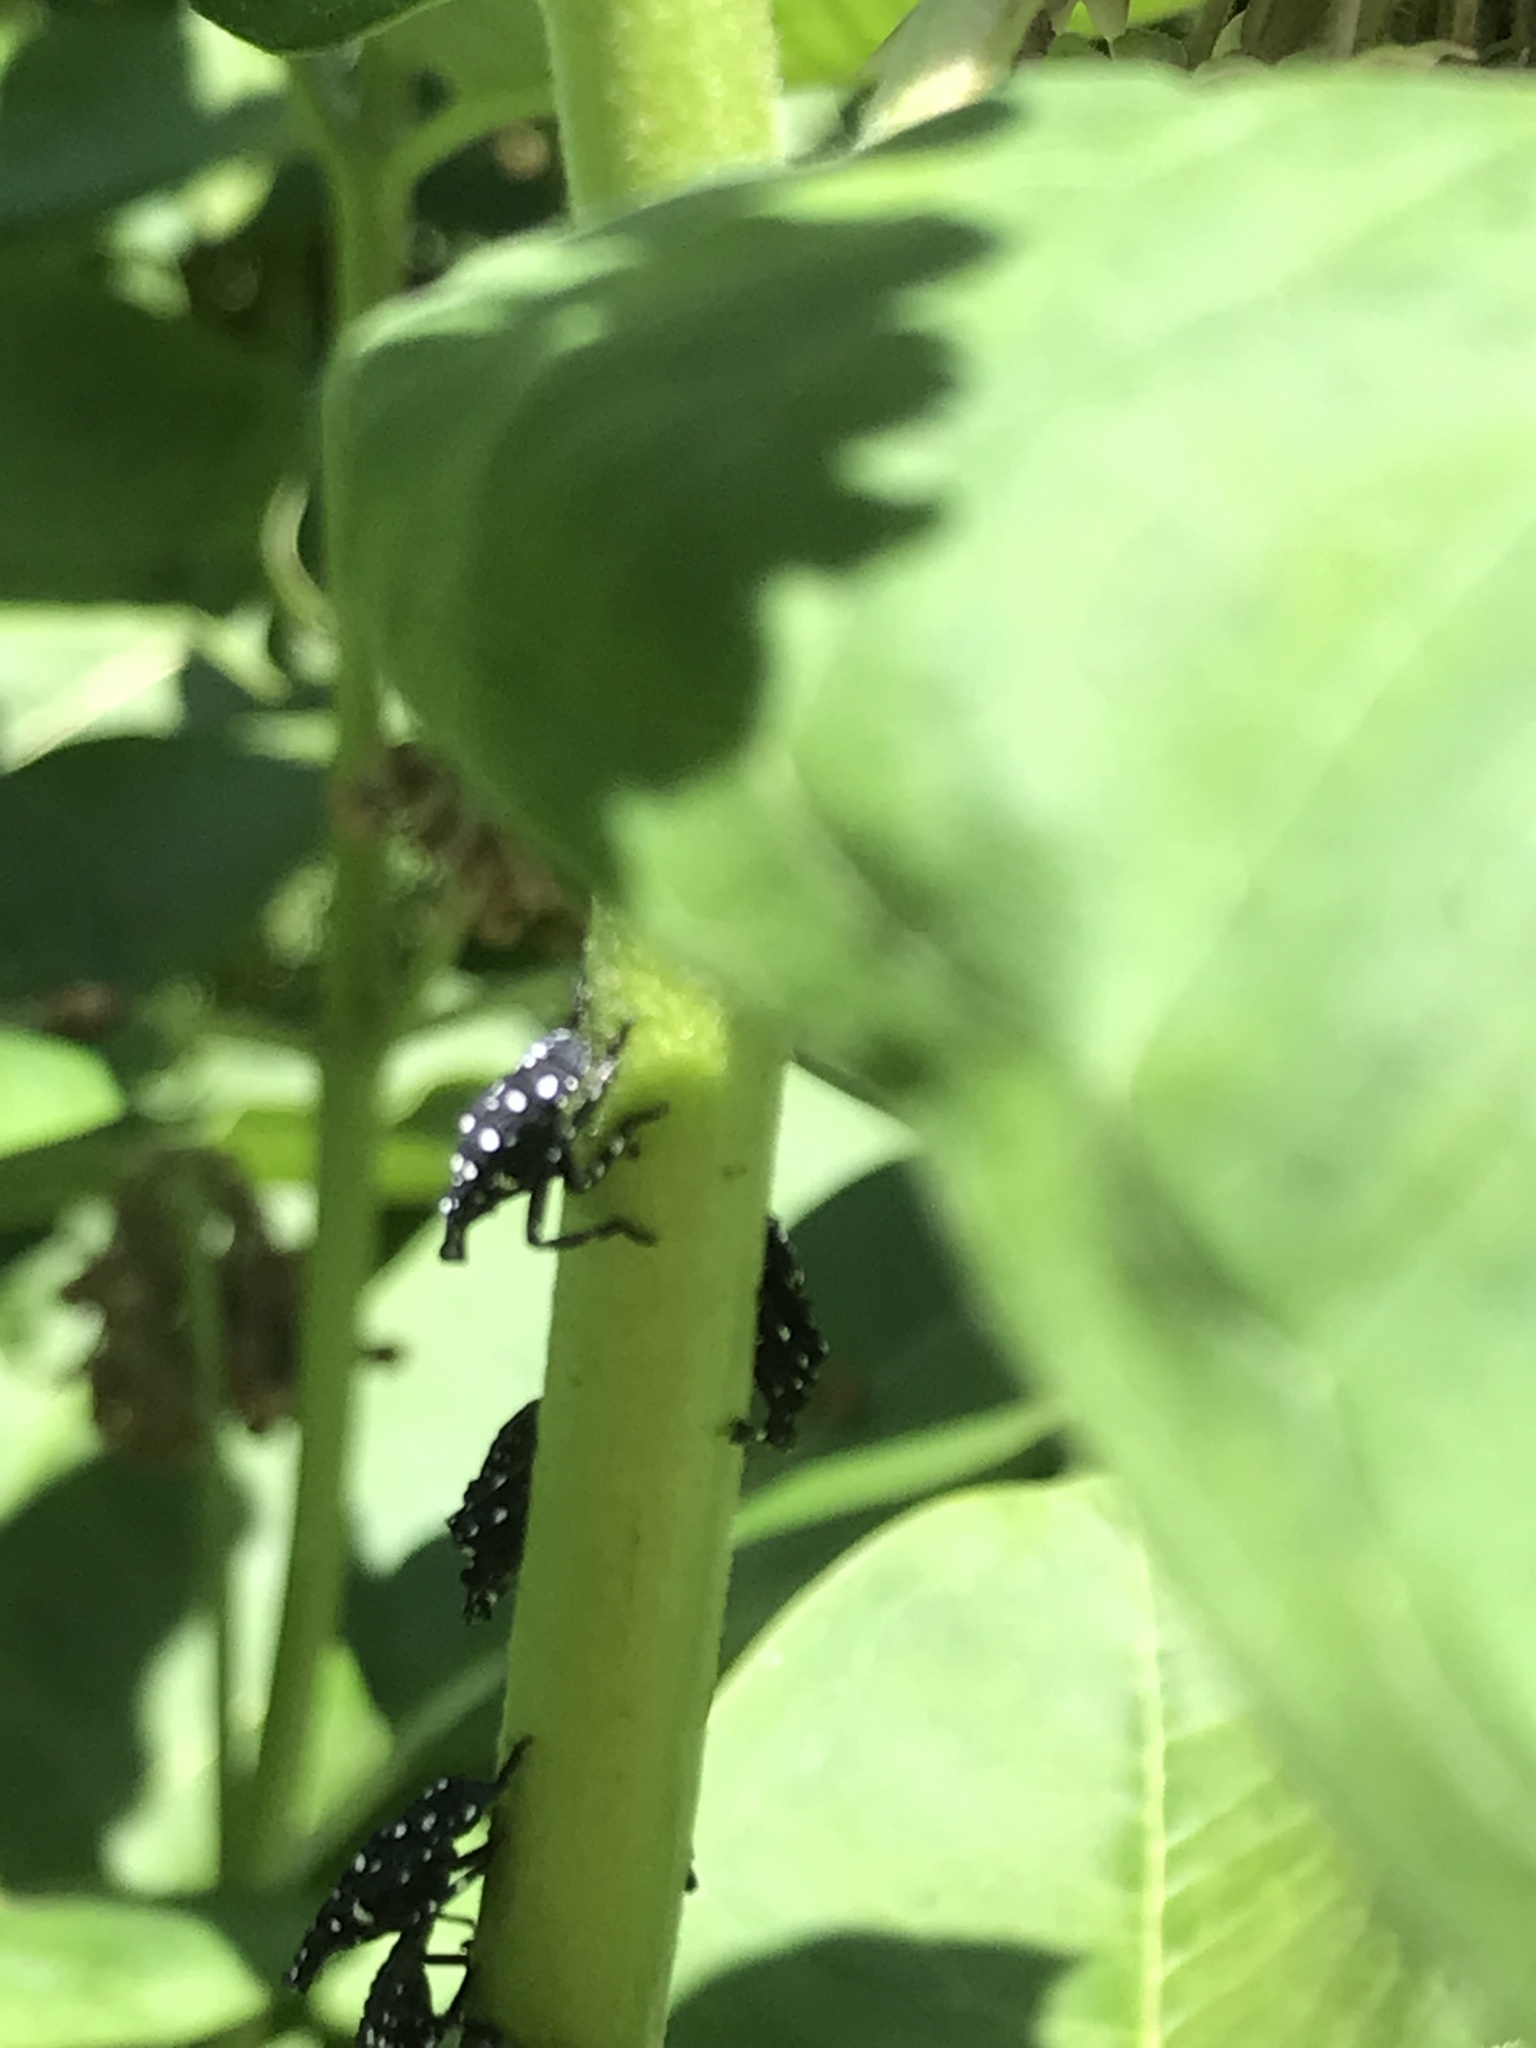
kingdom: Animalia
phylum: Arthropoda
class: Insecta
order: Hemiptera
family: Fulgoridae
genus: Lycorma
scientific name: Lycorma delicatula
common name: Spotted lanternfly
